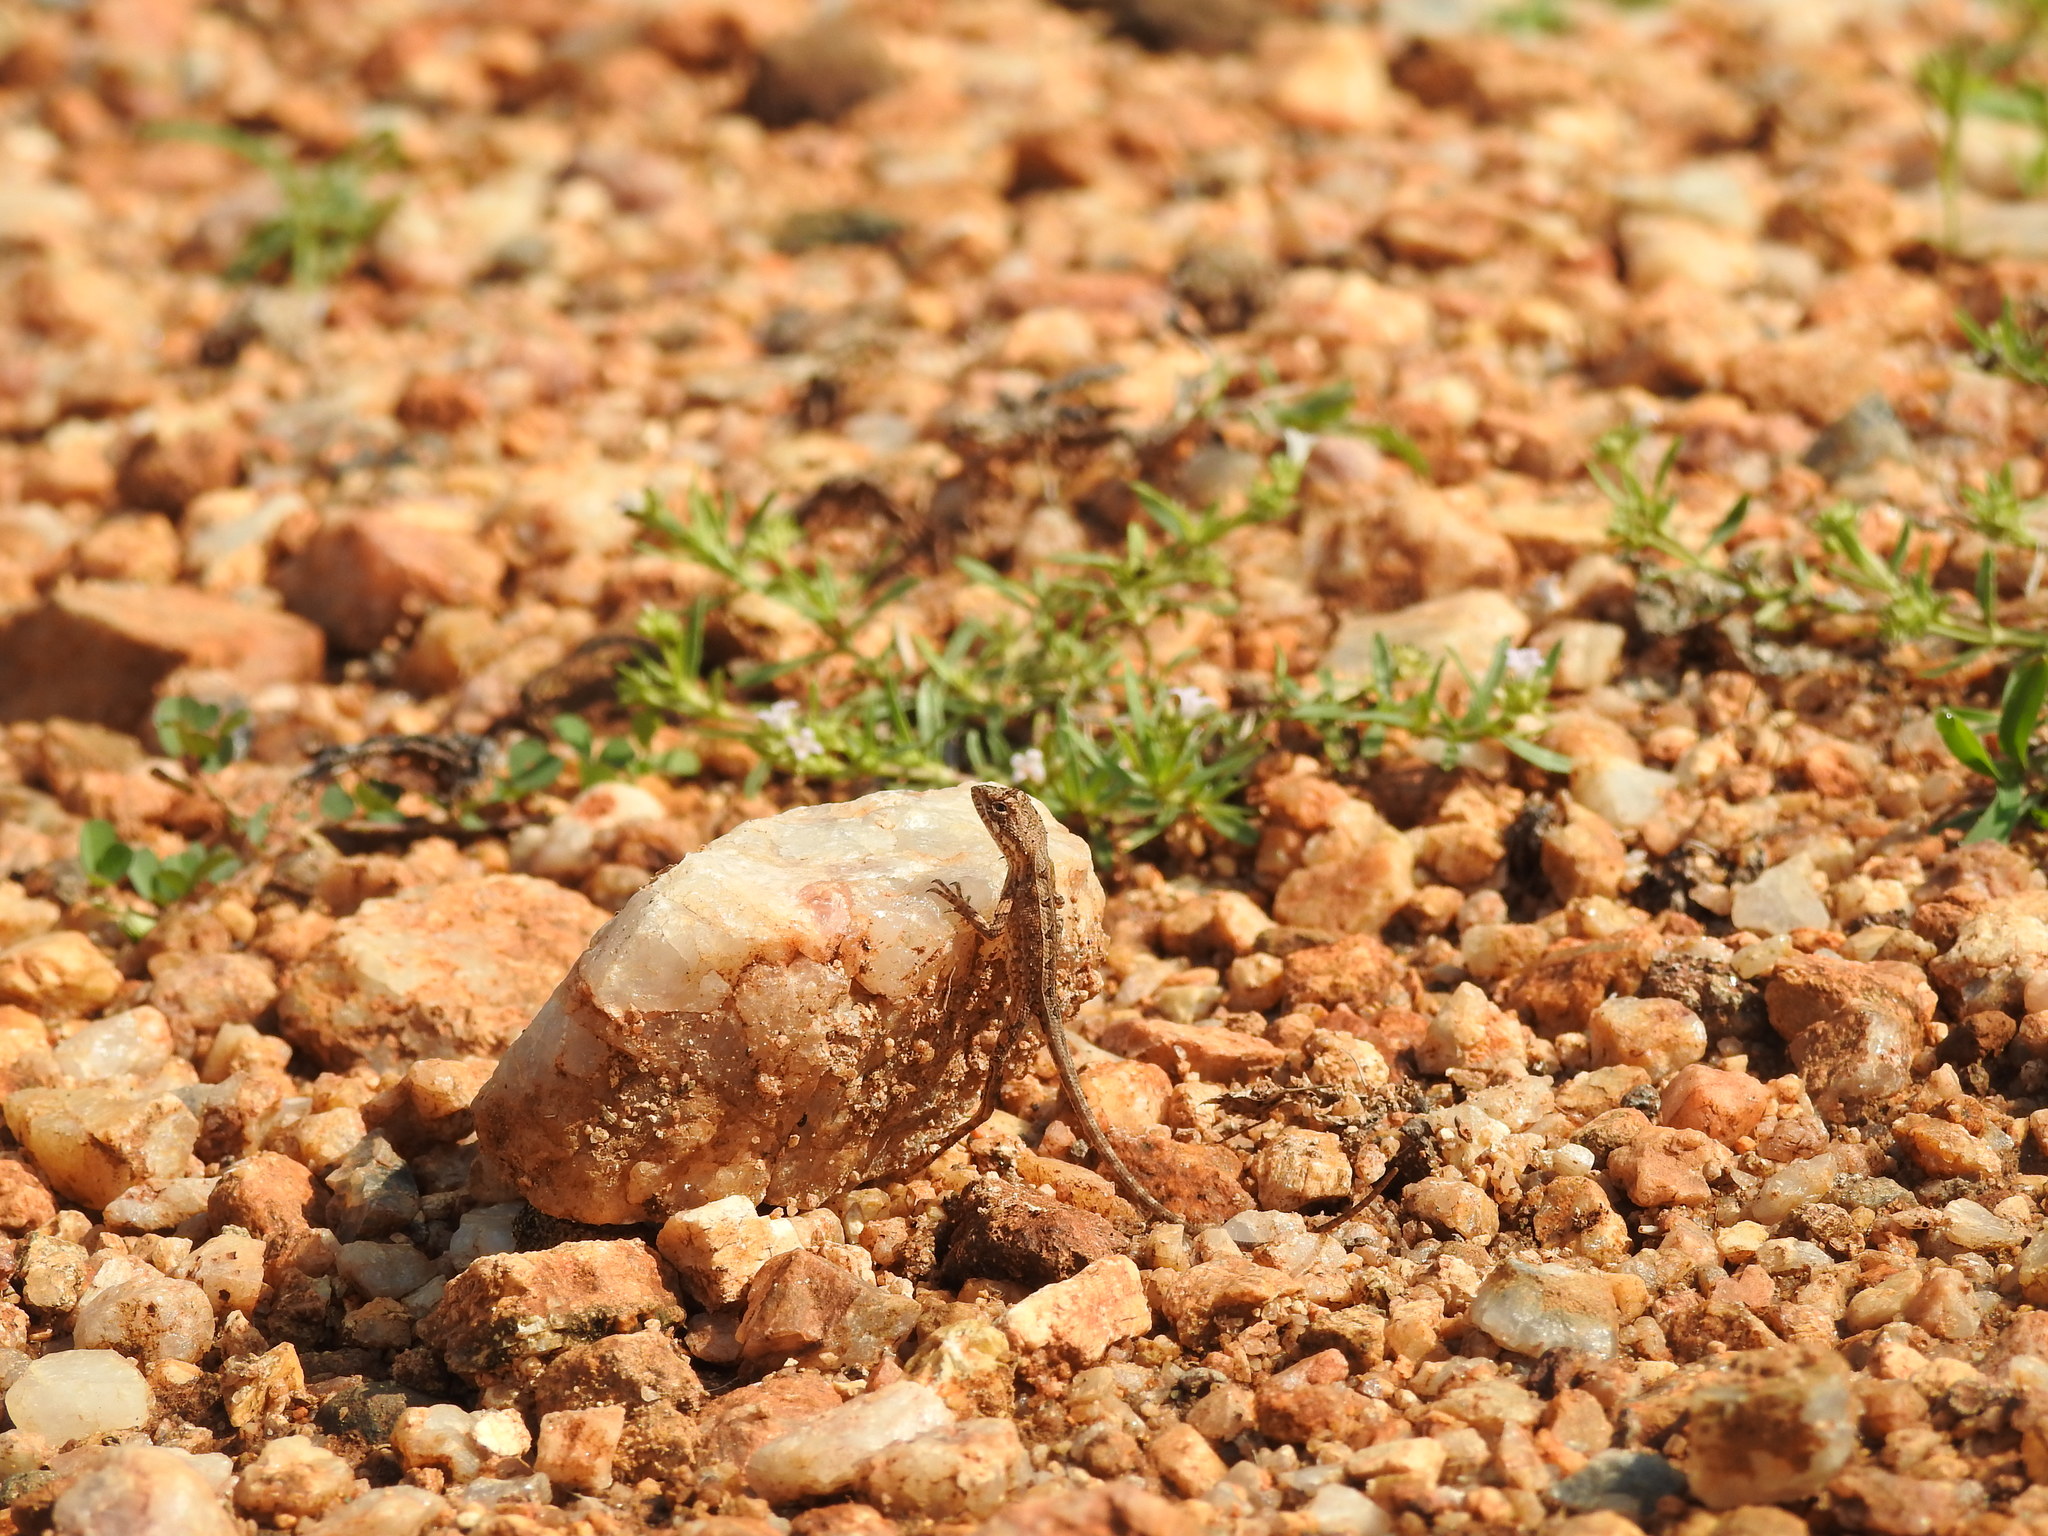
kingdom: Animalia
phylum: Chordata
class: Squamata
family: Agamidae
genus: Sitana
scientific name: Sitana ponticeriana
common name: Pondichéry fan throated lizard
